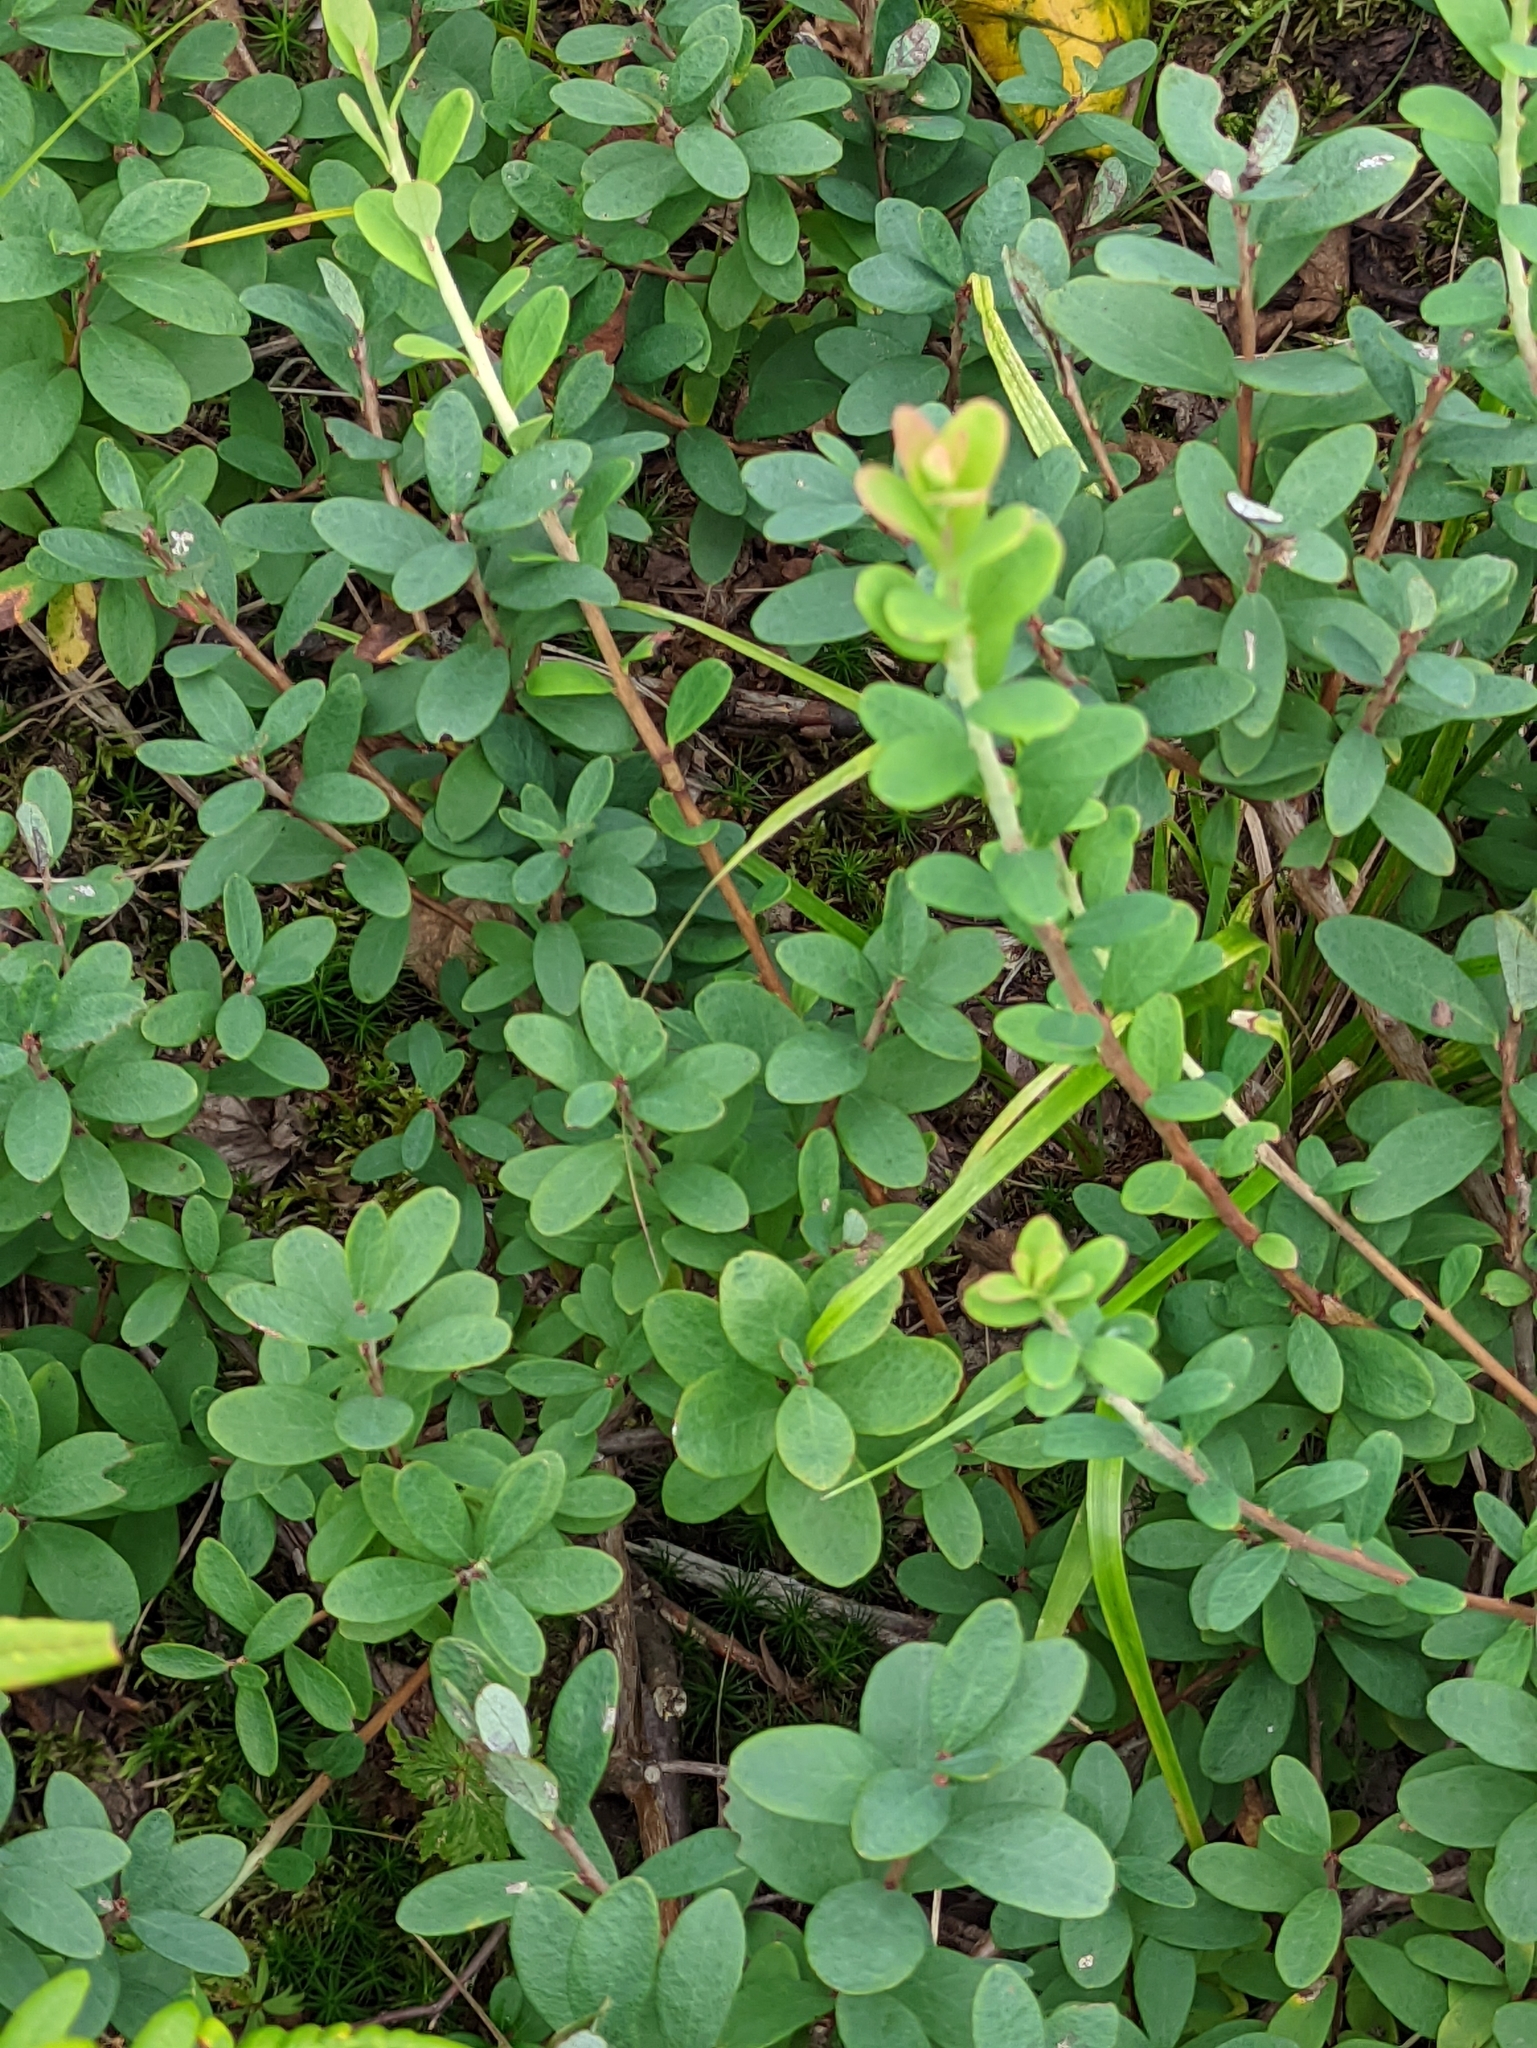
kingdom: Plantae
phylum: Tracheophyta
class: Magnoliopsida
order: Ericales
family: Ericaceae
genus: Vaccinium
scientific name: Vaccinium uliginosum
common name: Bog bilberry
